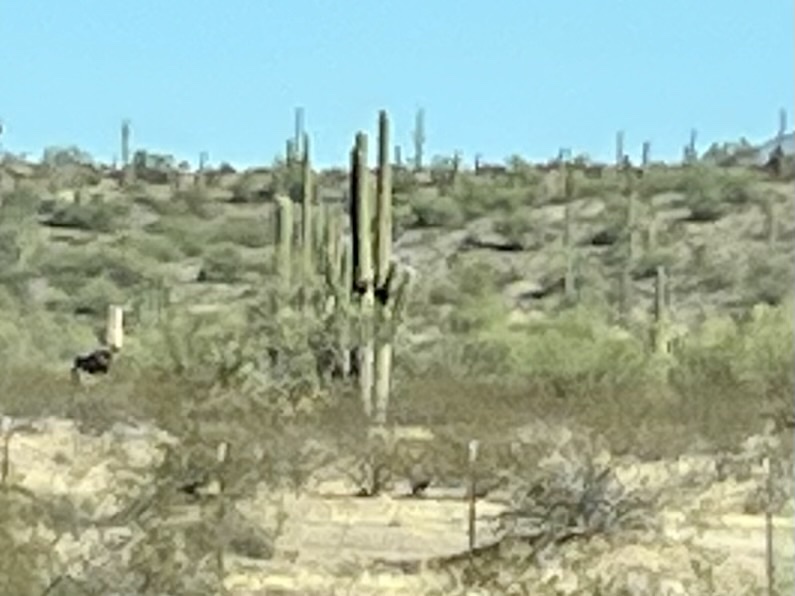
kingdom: Plantae
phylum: Tracheophyta
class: Magnoliopsida
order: Caryophyllales
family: Cactaceae
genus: Carnegiea
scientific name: Carnegiea gigantea
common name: Saguaro
